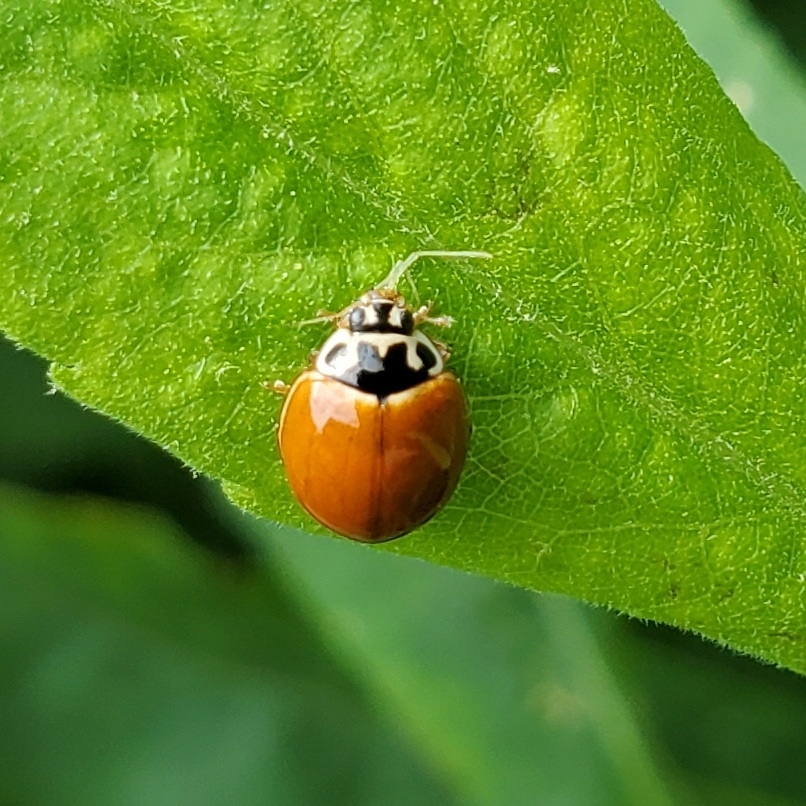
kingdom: Animalia
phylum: Arthropoda
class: Insecta
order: Coleoptera
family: Coccinellidae
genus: Cycloneda
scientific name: Cycloneda munda
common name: Polished lady beetle
